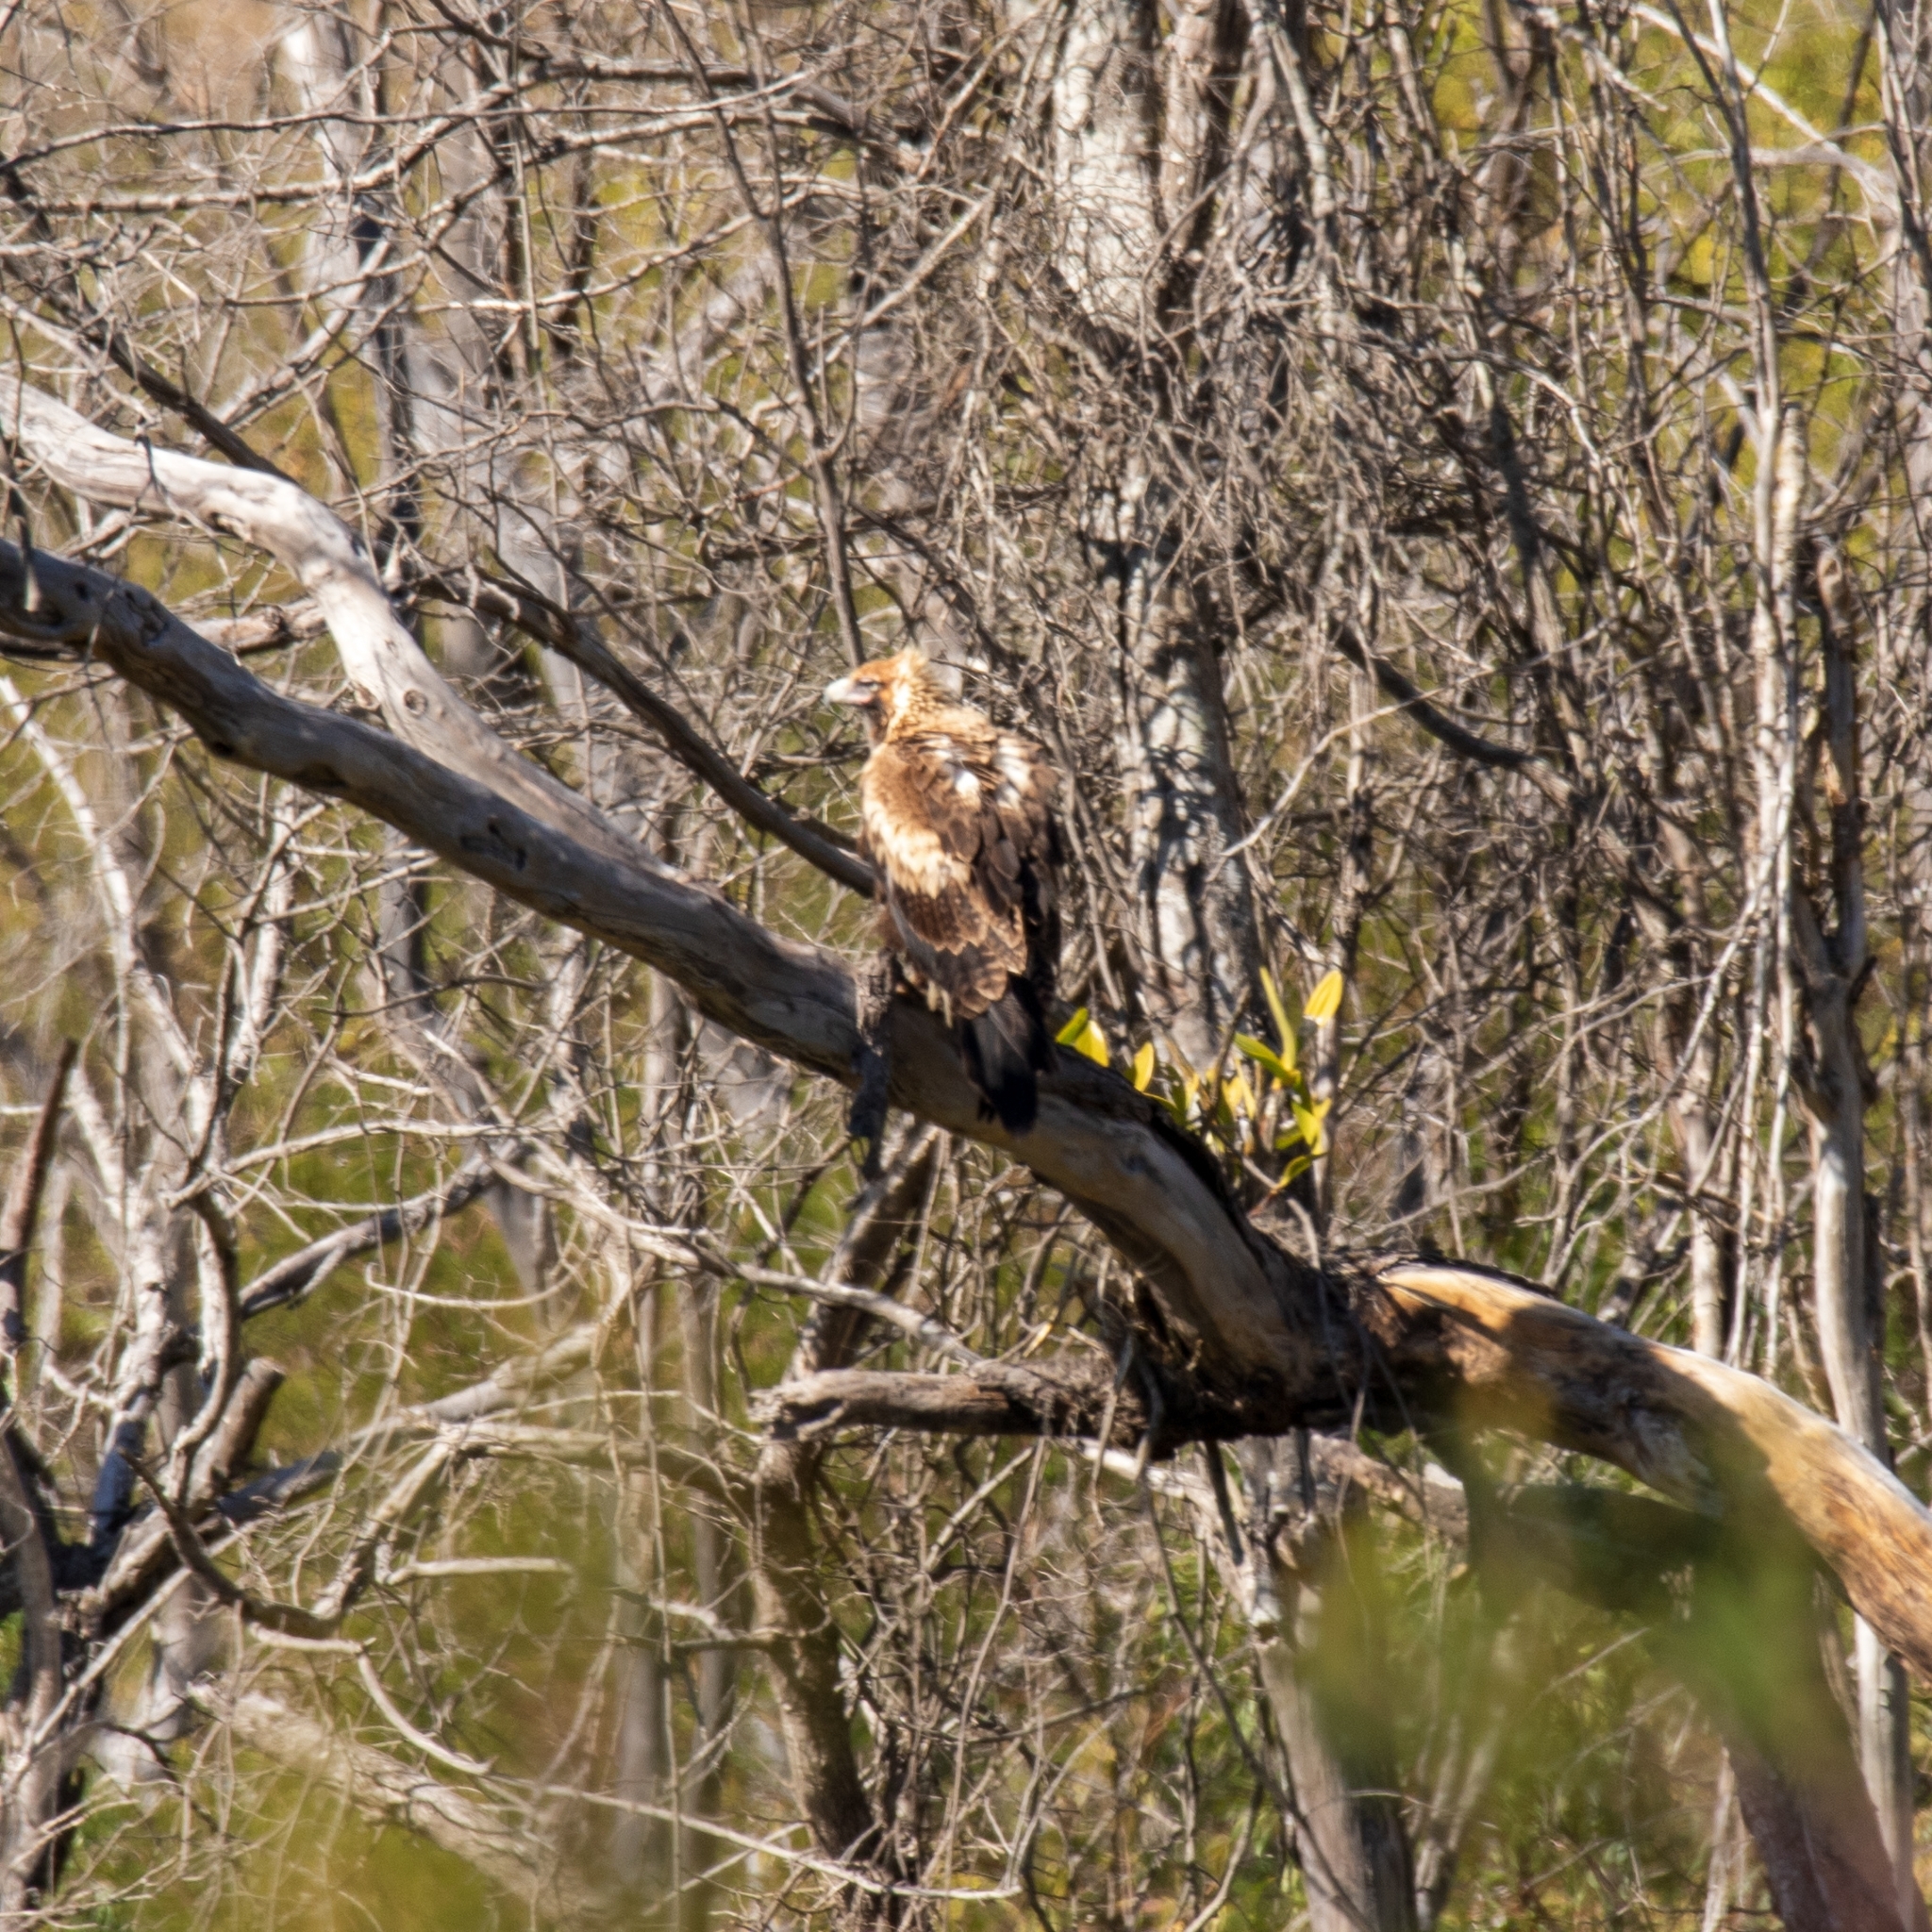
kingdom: Animalia
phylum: Chordata
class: Aves
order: Accipitriformes
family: Accipitridae
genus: Aquila
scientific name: Aquila audax
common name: Wedge-tailed eagle
